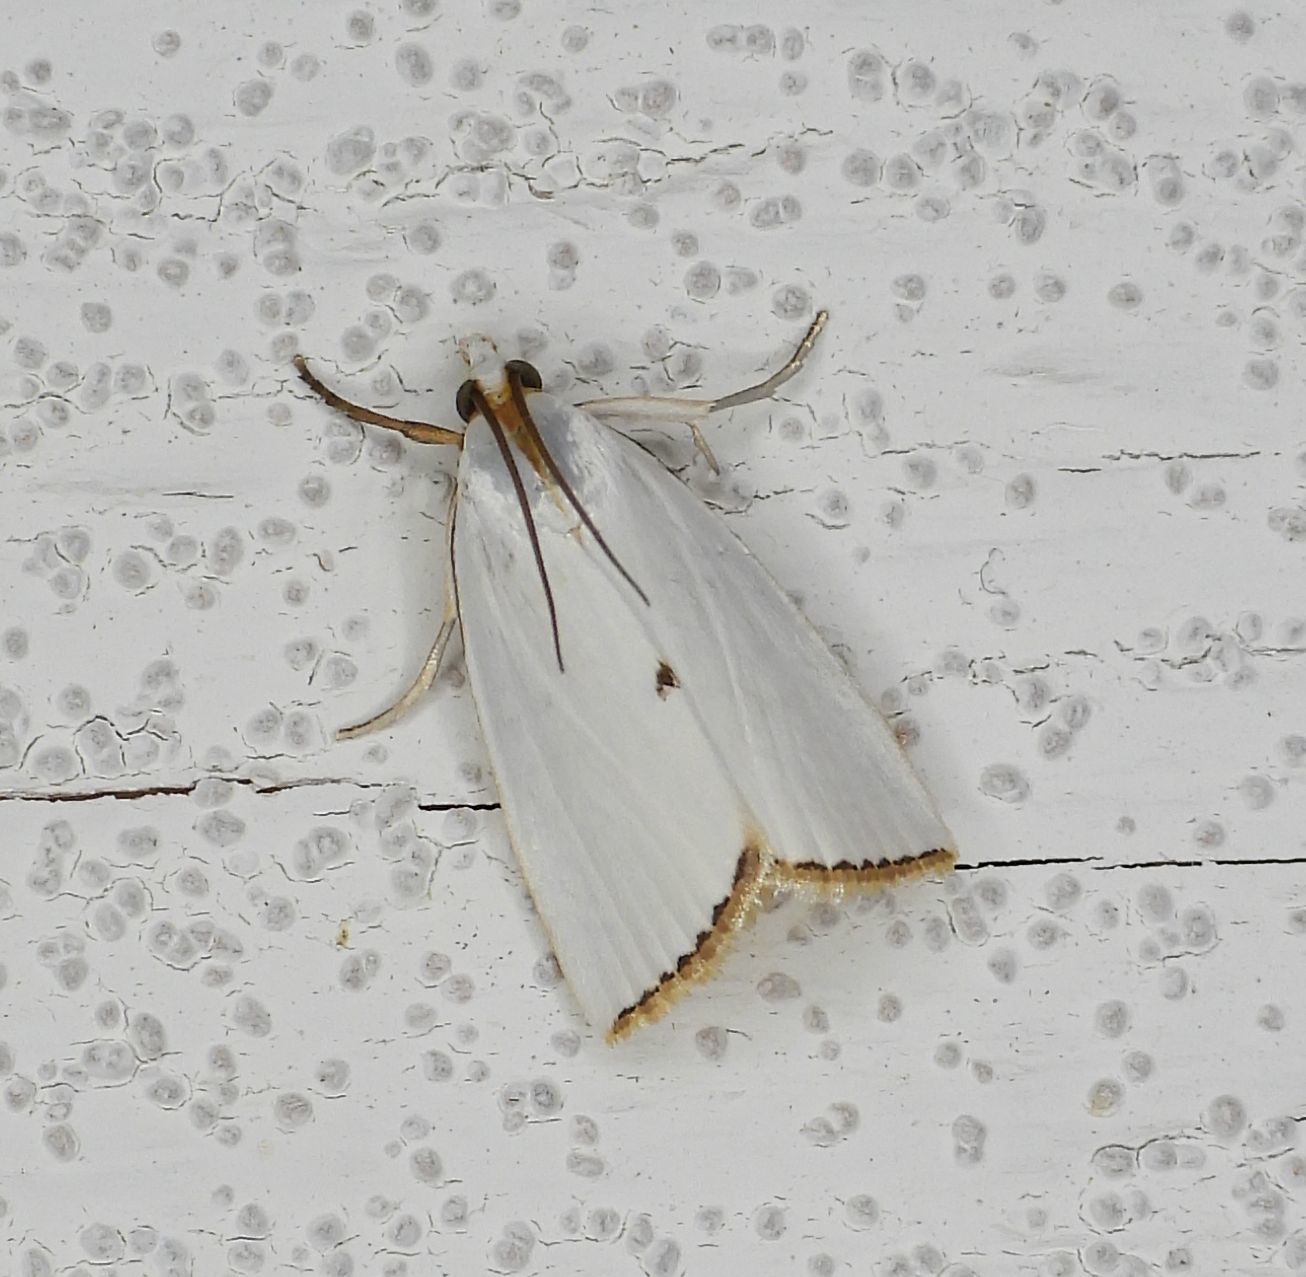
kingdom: Animalia
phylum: Arthropoda
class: Insecta
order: Lepidoptera
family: Crambidae
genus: Argyria
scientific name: Argyria nivalis
